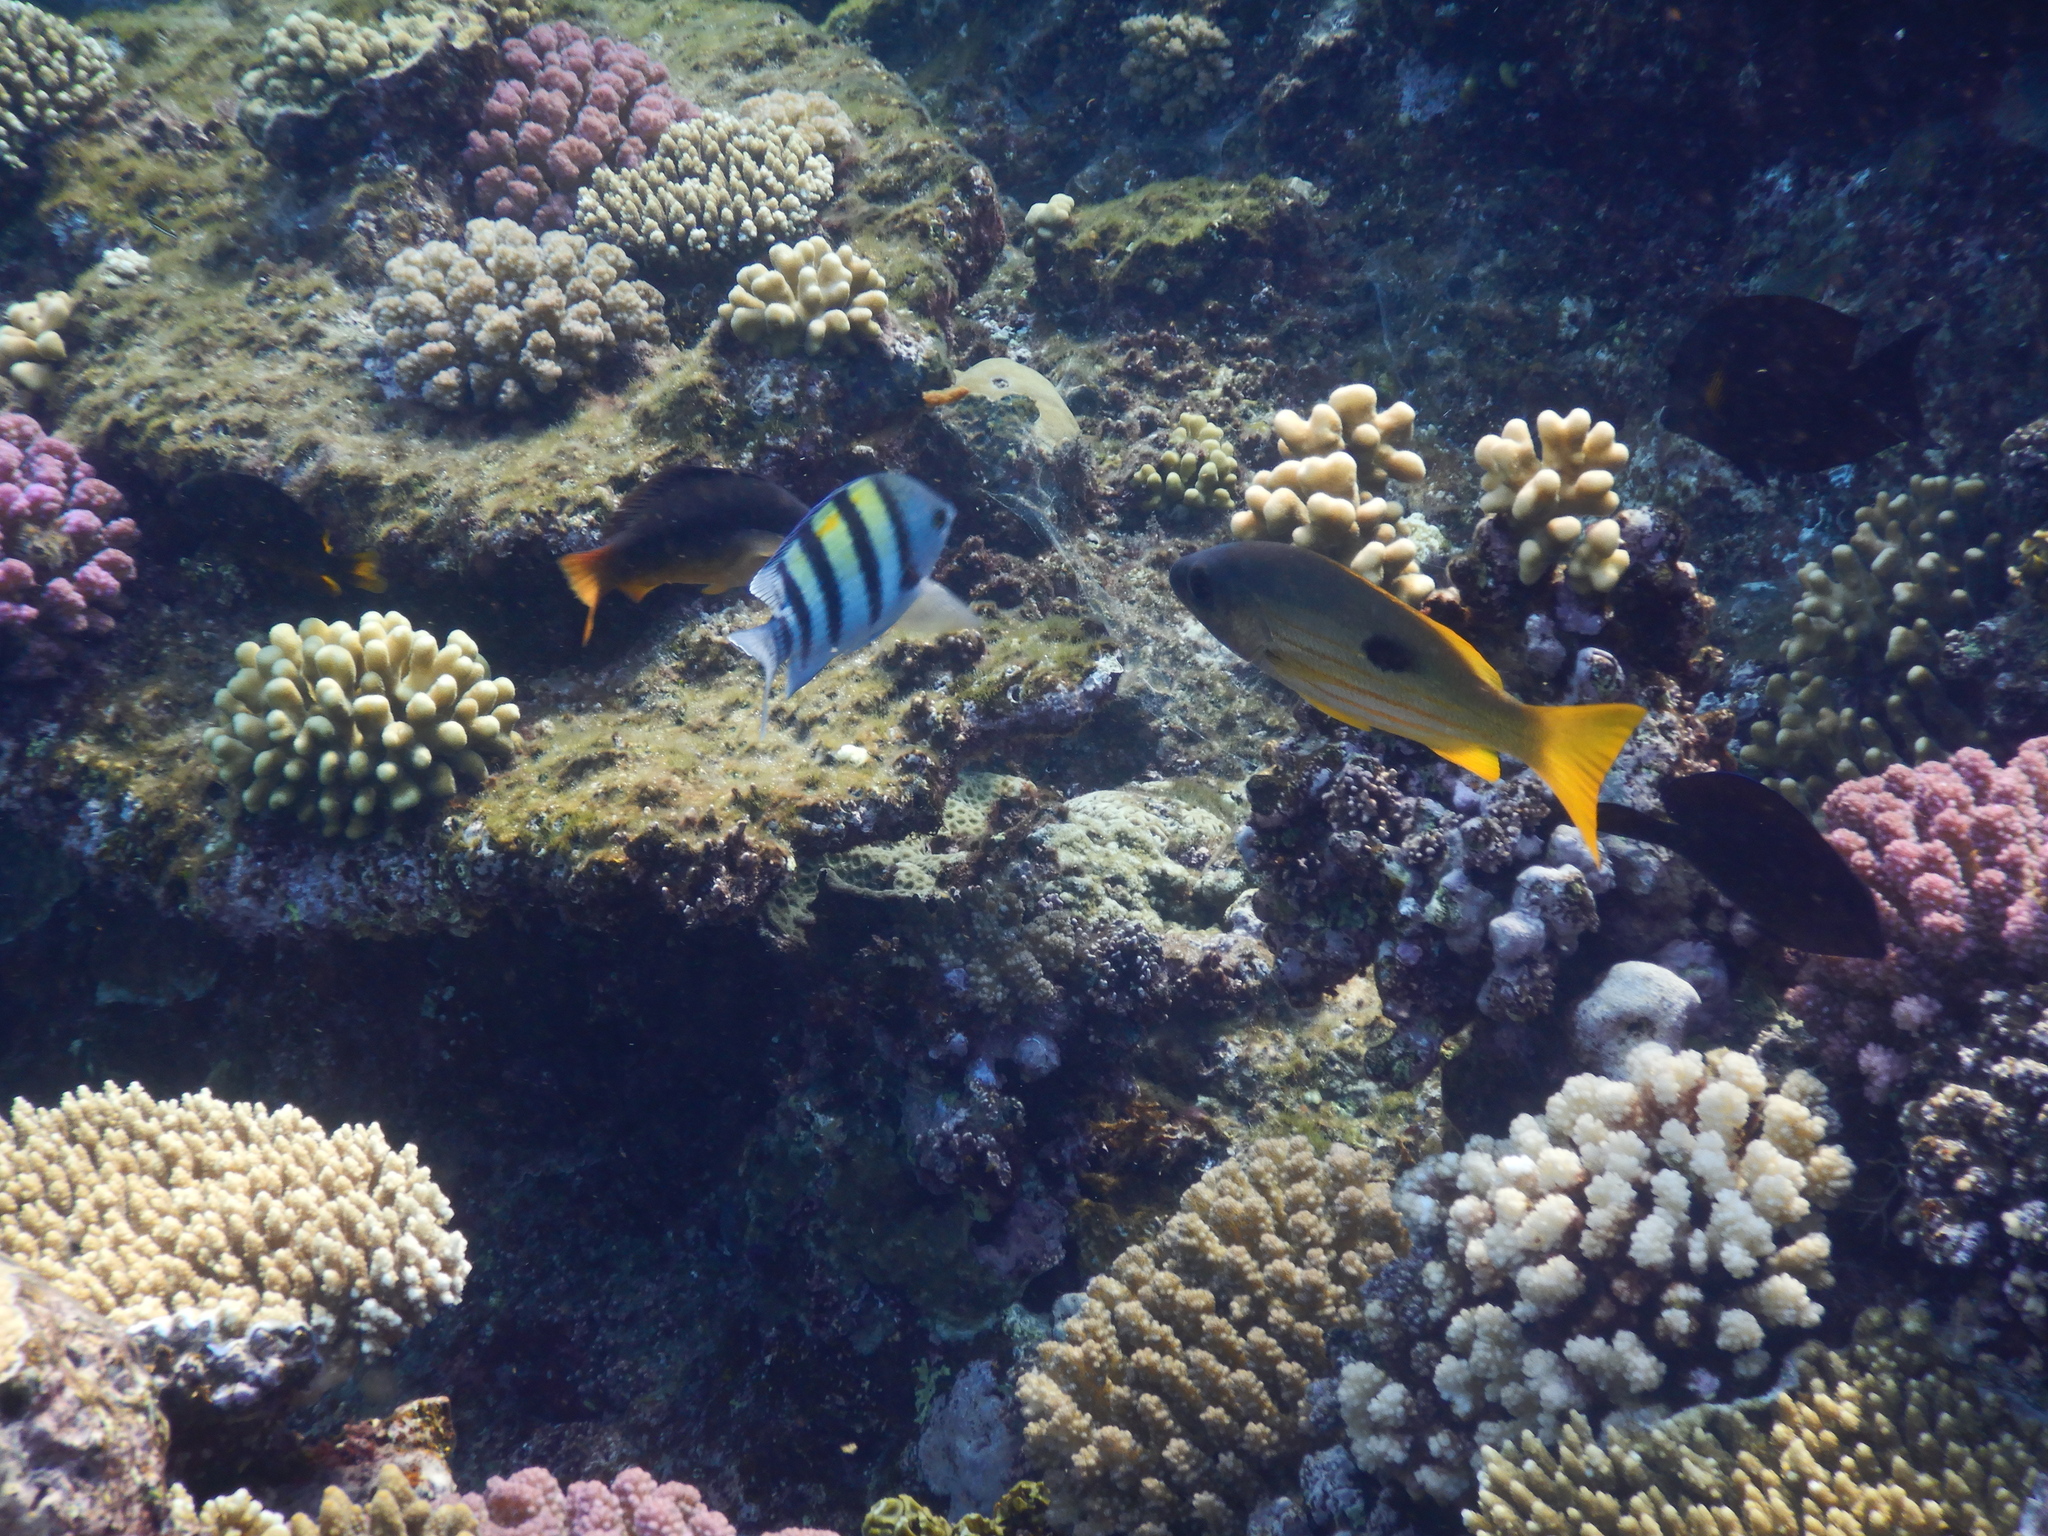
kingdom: Animalia
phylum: Chordata
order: Perciformes
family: Pomacentridae
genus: Abudefduf
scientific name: Abudefduf vaigiensis
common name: Indo-pacific sergeant
